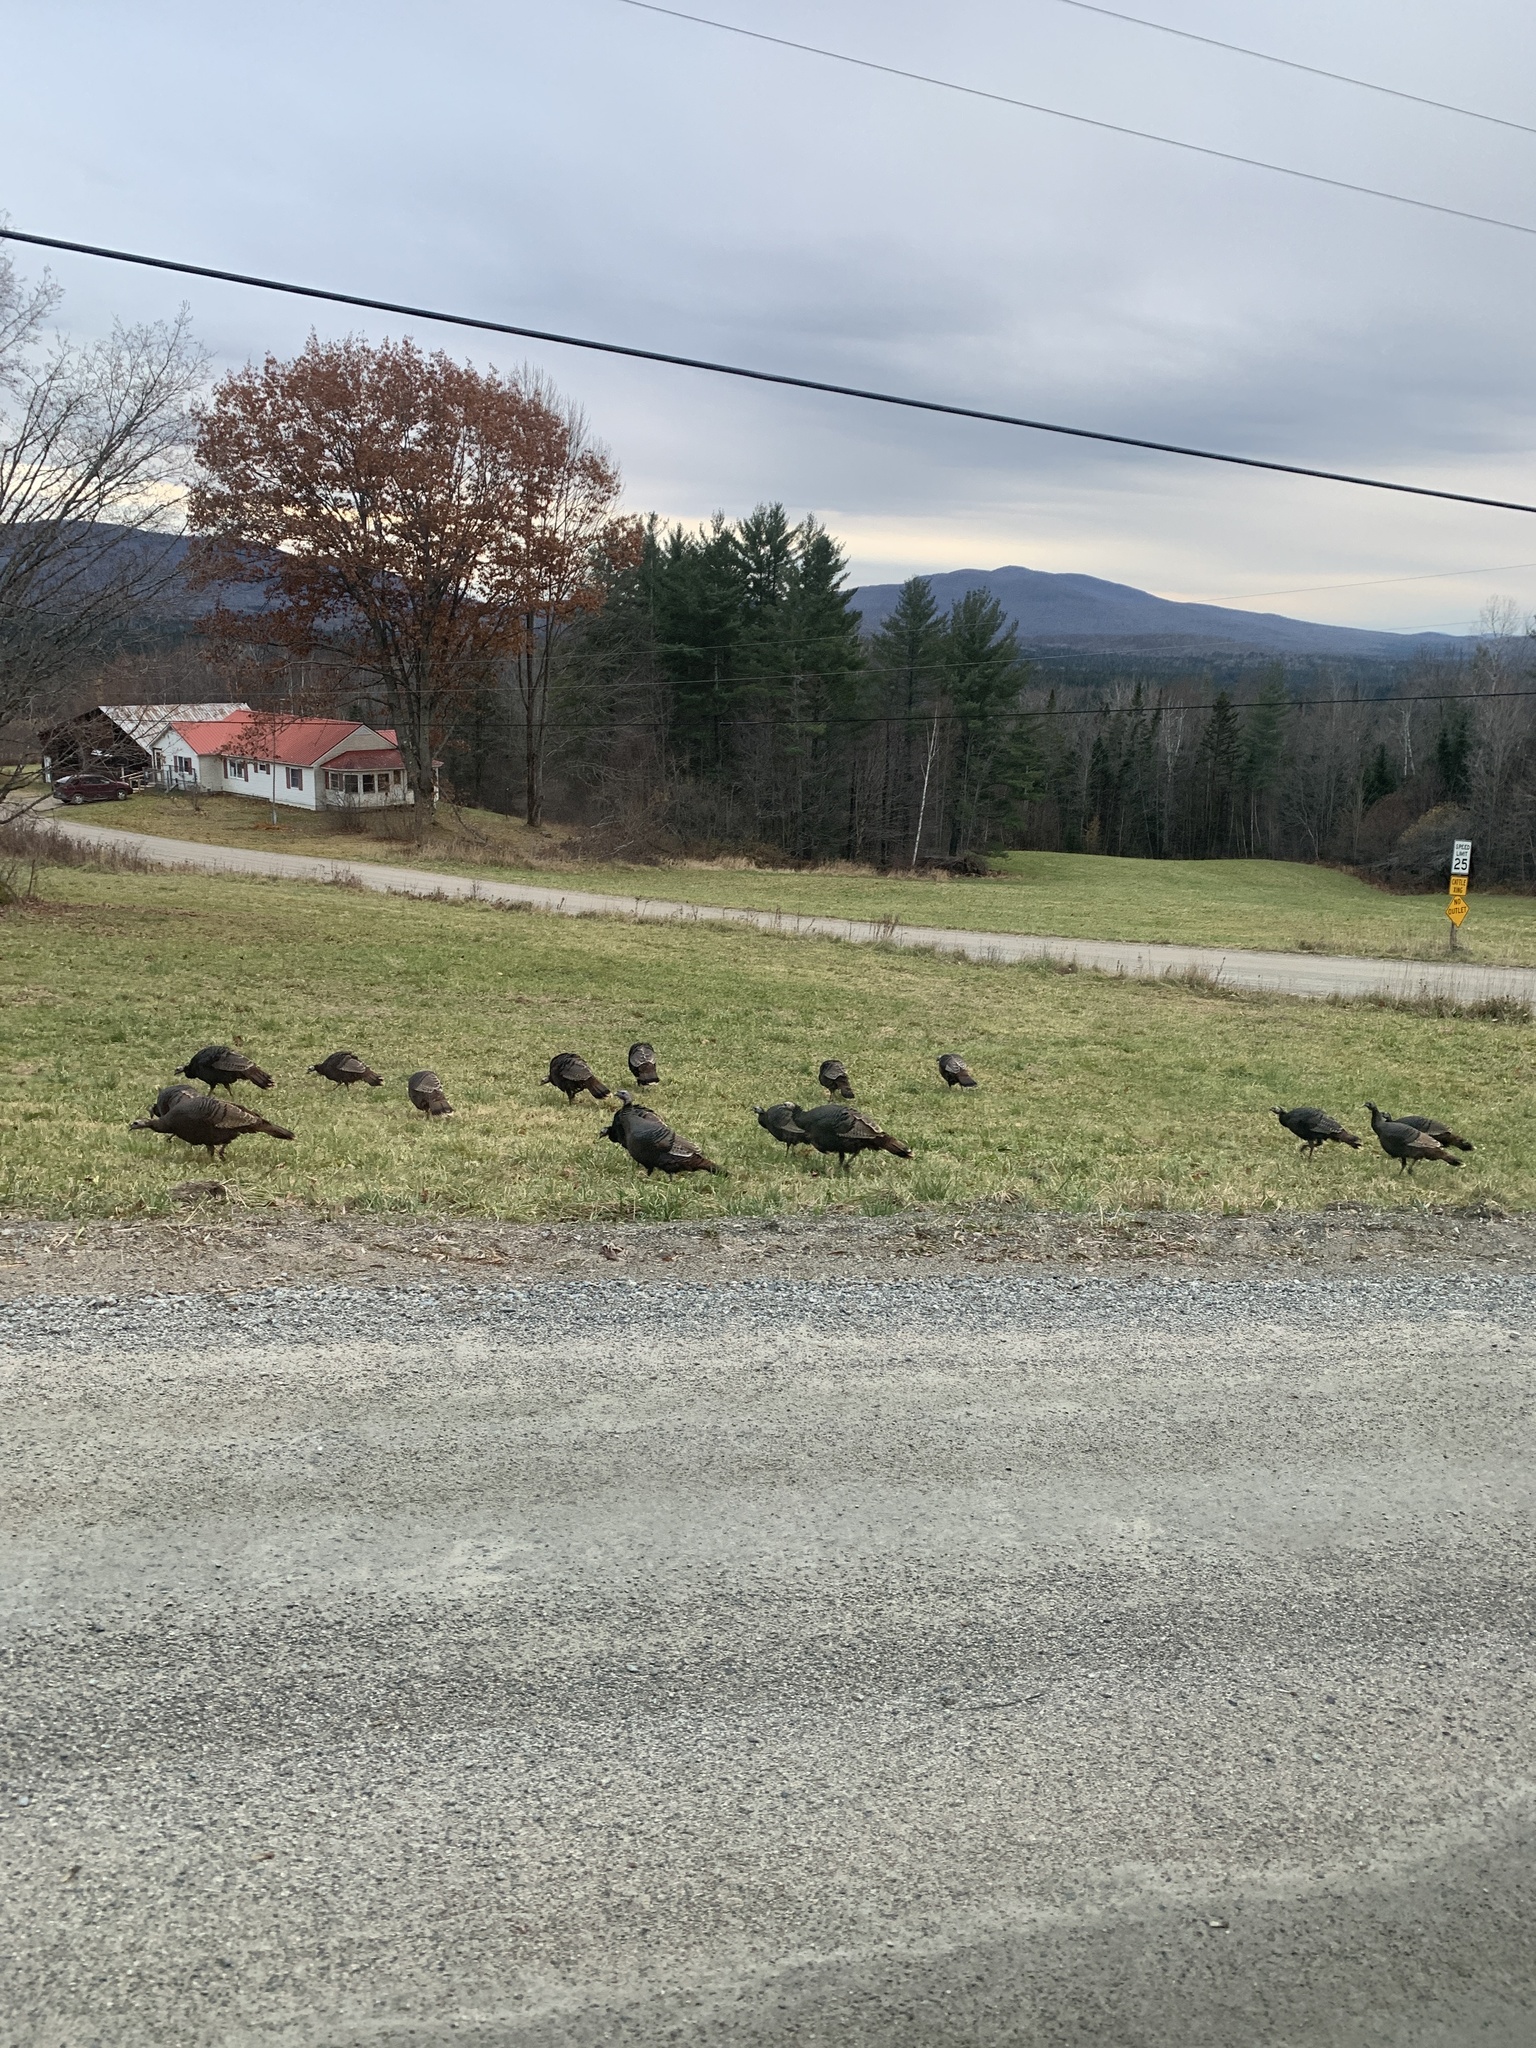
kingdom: Animalia
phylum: Chordata
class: Aves
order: Galliformes
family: Phasianidae
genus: Meleagris
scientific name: Meleagris gallopavo
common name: Wild turkey
